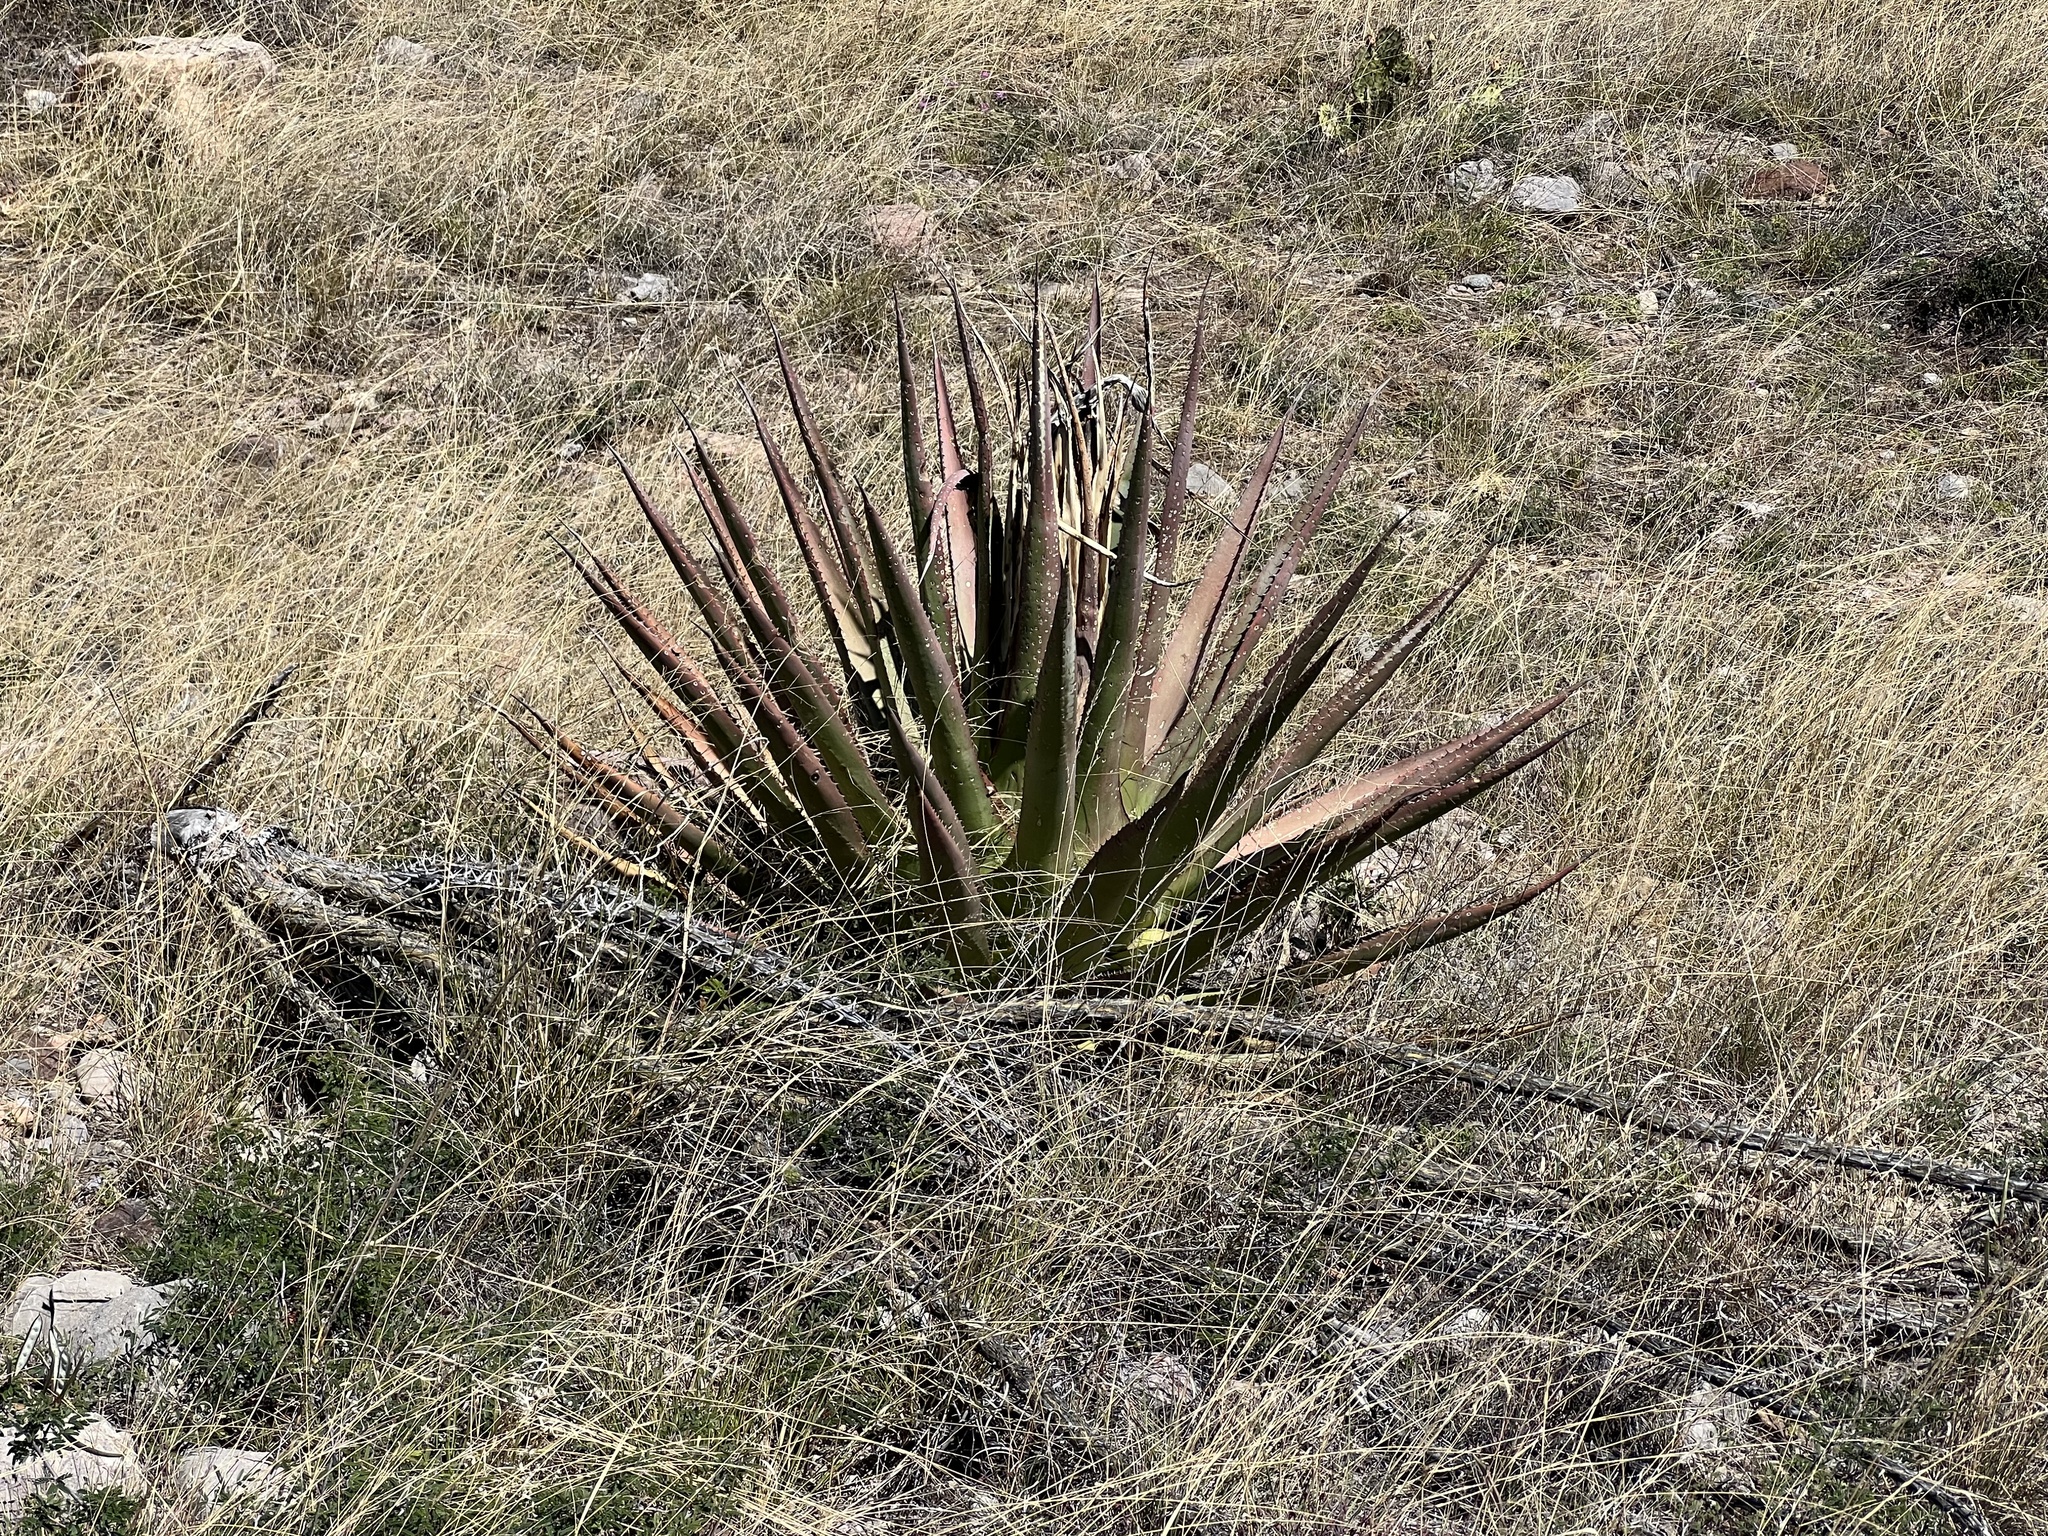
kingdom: Plantae
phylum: Tracheophyta
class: Liliopsida
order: Asparagales
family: Asparagaceae
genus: Agave
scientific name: Agave palmeri
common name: Palmer agave
